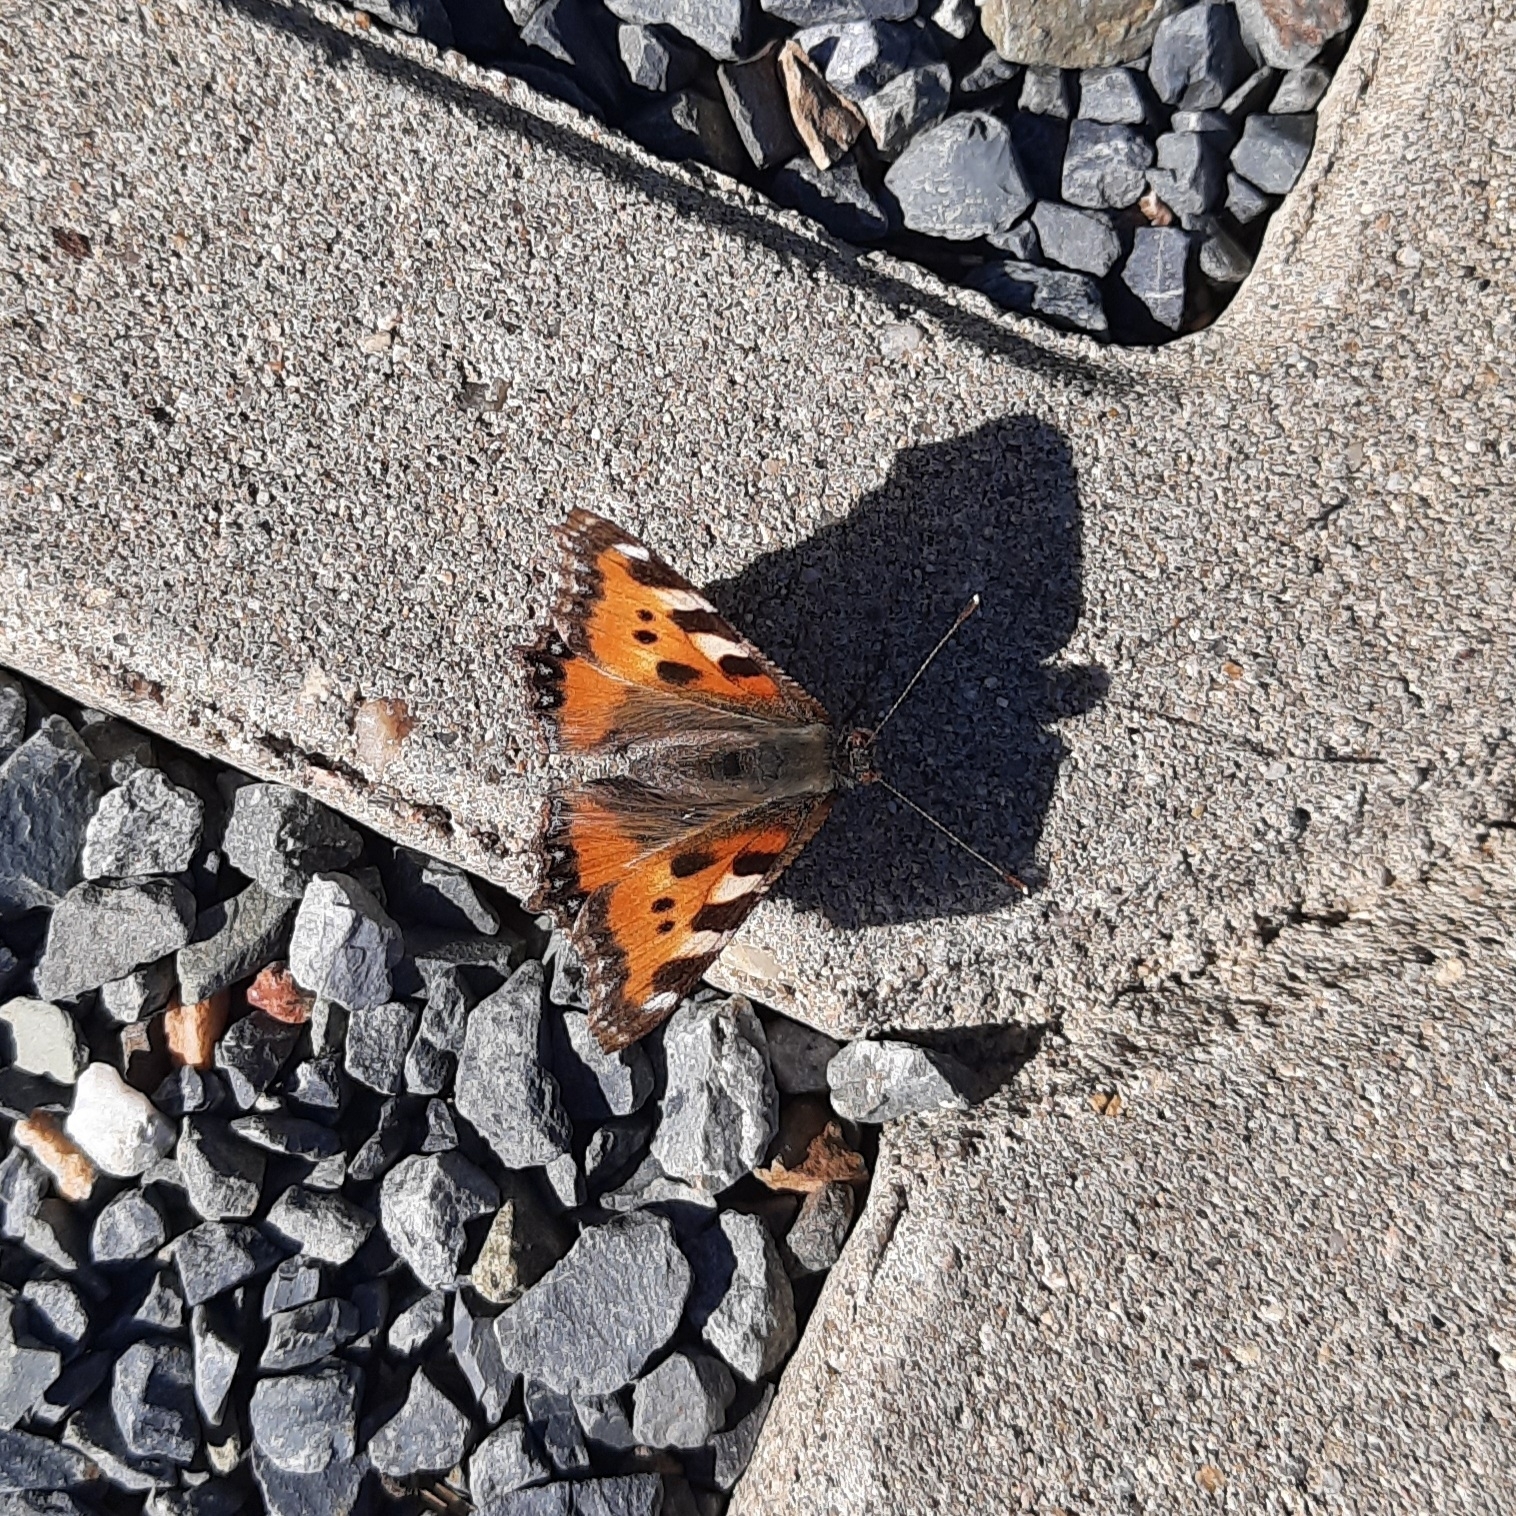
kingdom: Animalia
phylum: Arthropoda
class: Insecta
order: Lepidoptera
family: Nymphalidae
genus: Aglais
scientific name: Aglais urticae
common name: Small tortoiseshell
